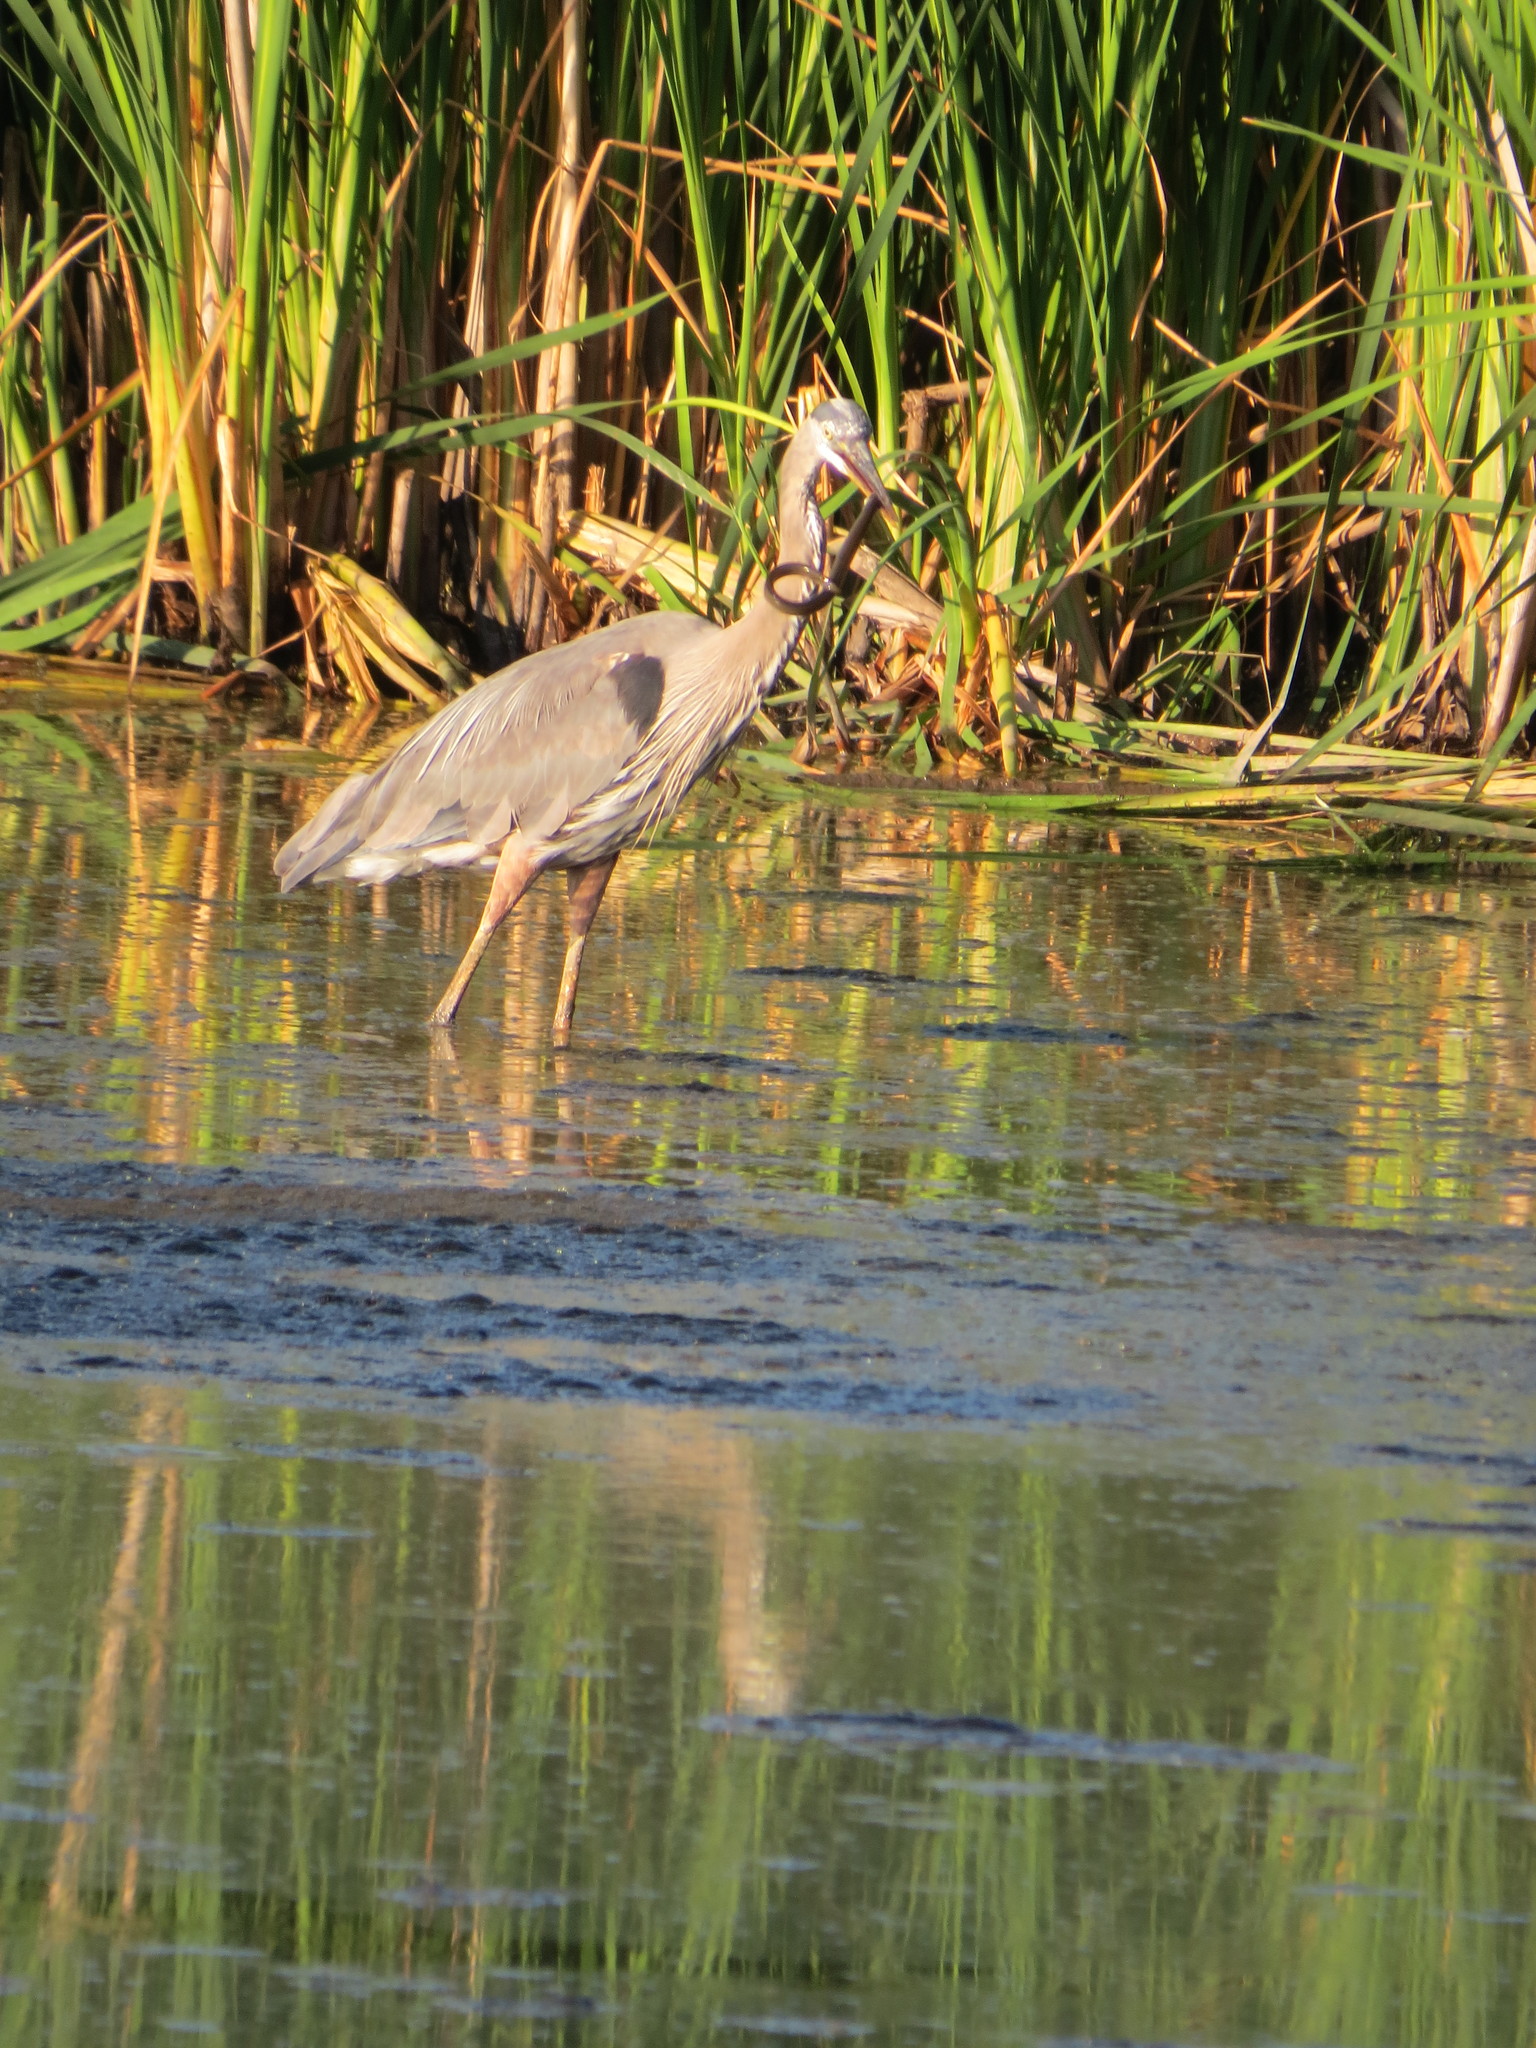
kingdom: Animalia
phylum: Chordata
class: Aves
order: Pelecaniformes
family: Ardeidae
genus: Ardea
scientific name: Ardea herodias
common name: Great blue heron
